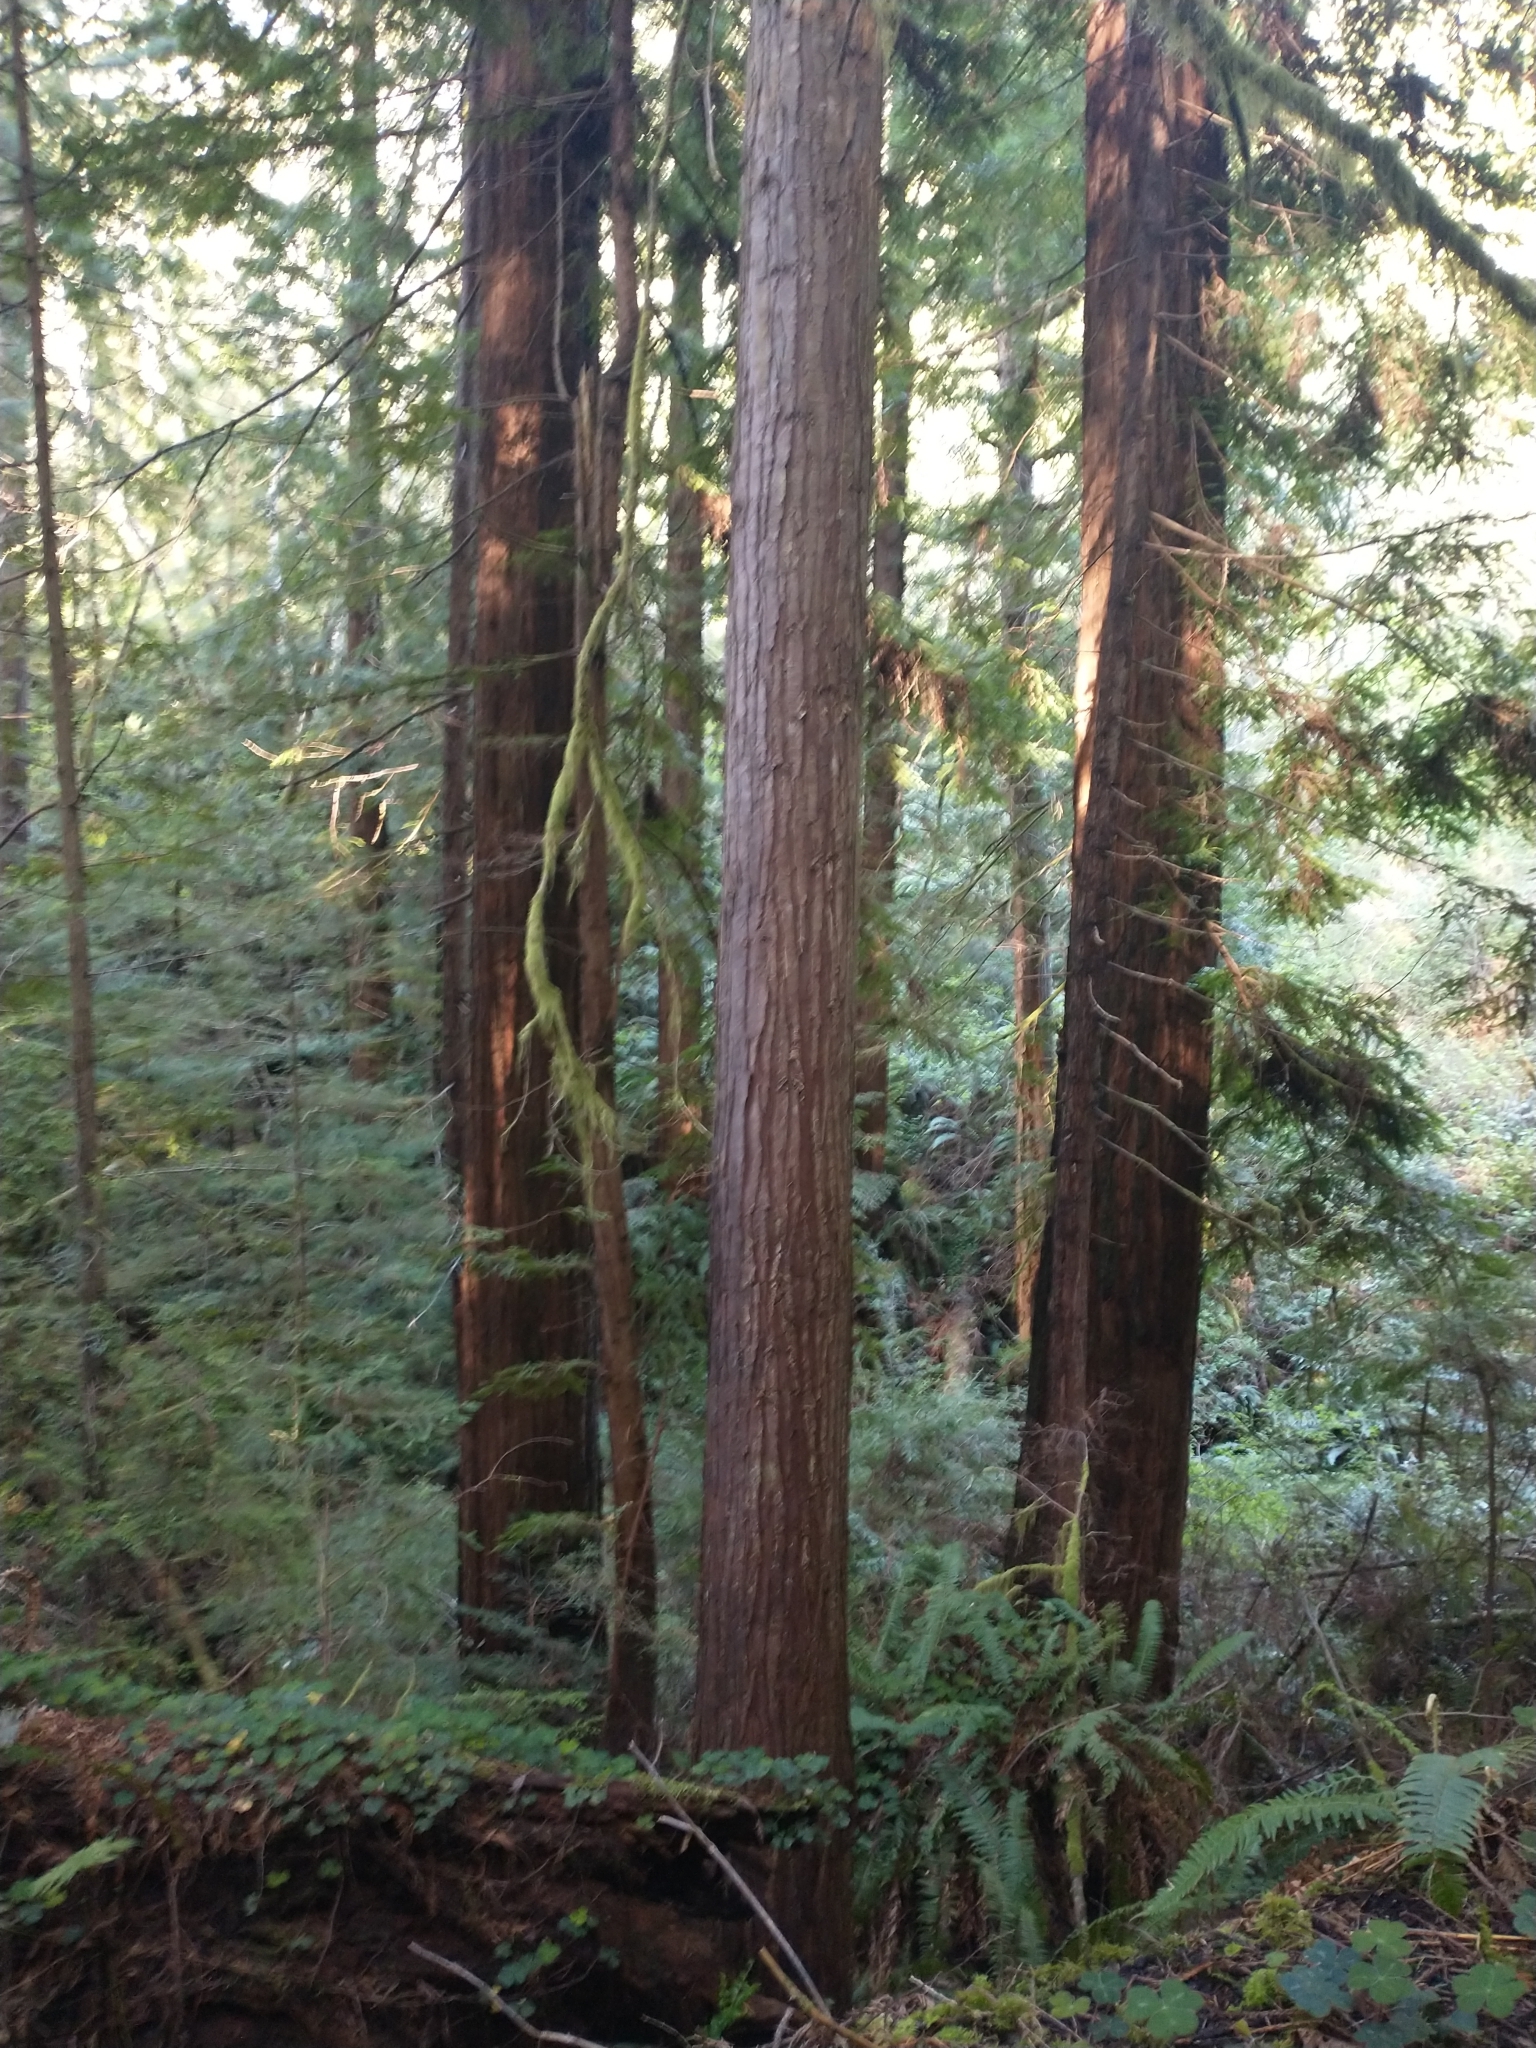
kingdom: Plantae
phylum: Tracheophyta
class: Pinopsida
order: Pinales
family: Cupressaceae
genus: Chamaecyparis
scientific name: Chamaecyparis lawsoniana
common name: Lawson's cypress
